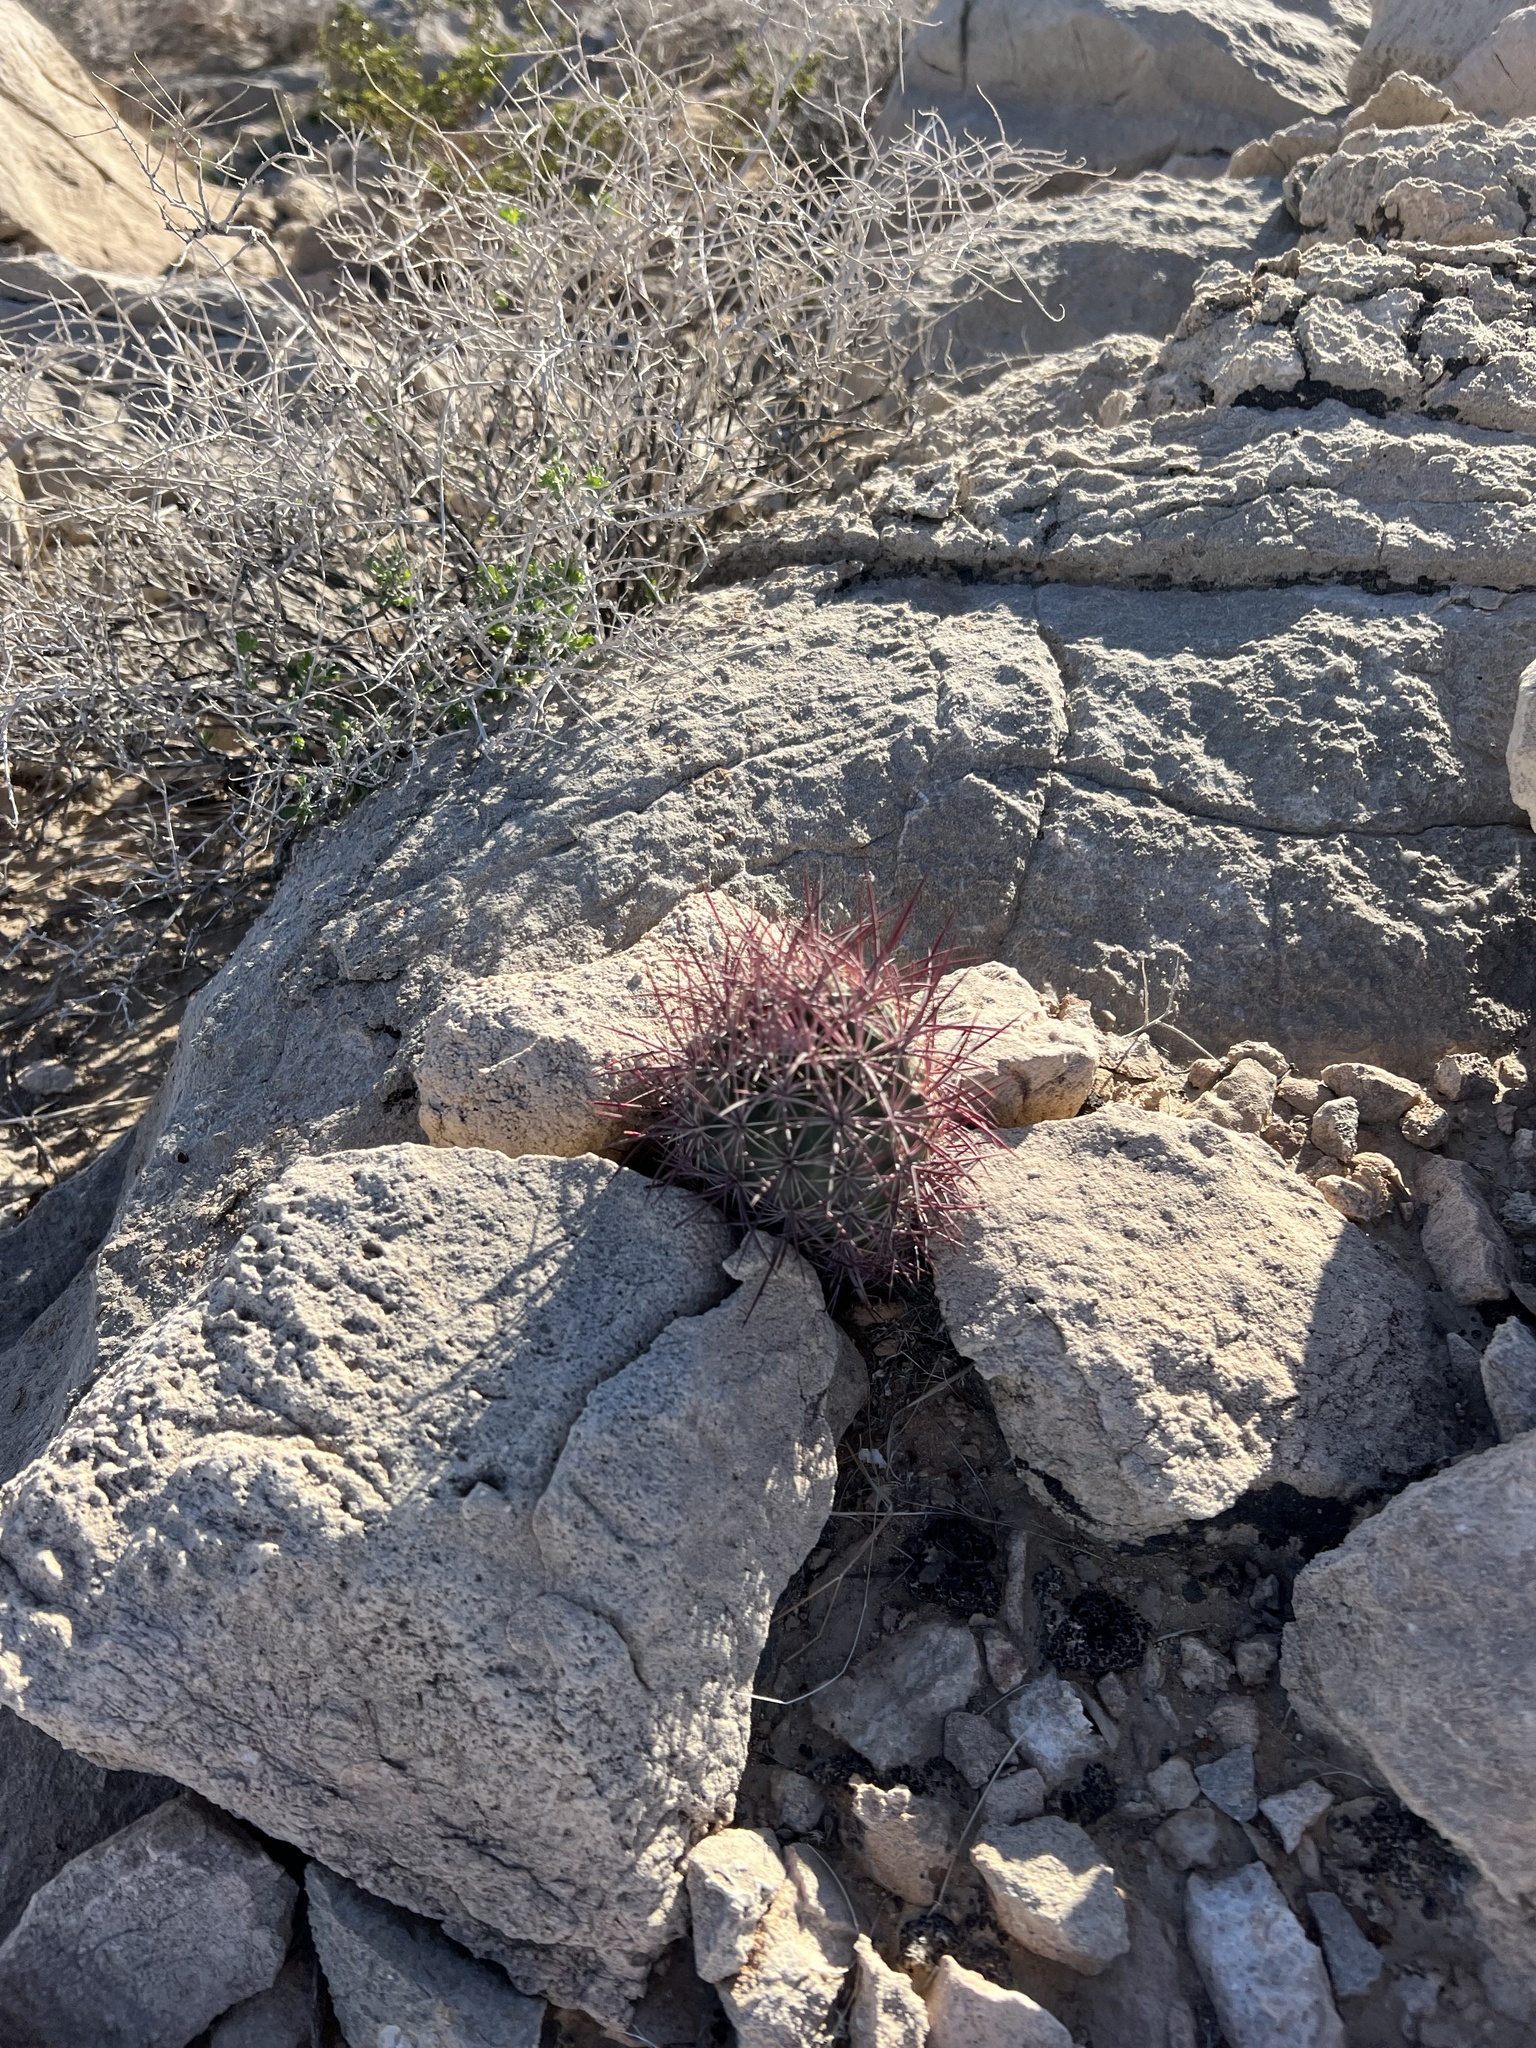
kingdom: Plantae
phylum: Tracheophyta
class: Magnoliopsida
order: Caryophyllales
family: Cactaceae
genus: Sclerocactus
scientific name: Sclerocactus johnsonii
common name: Eight-spine fishhook cactus
